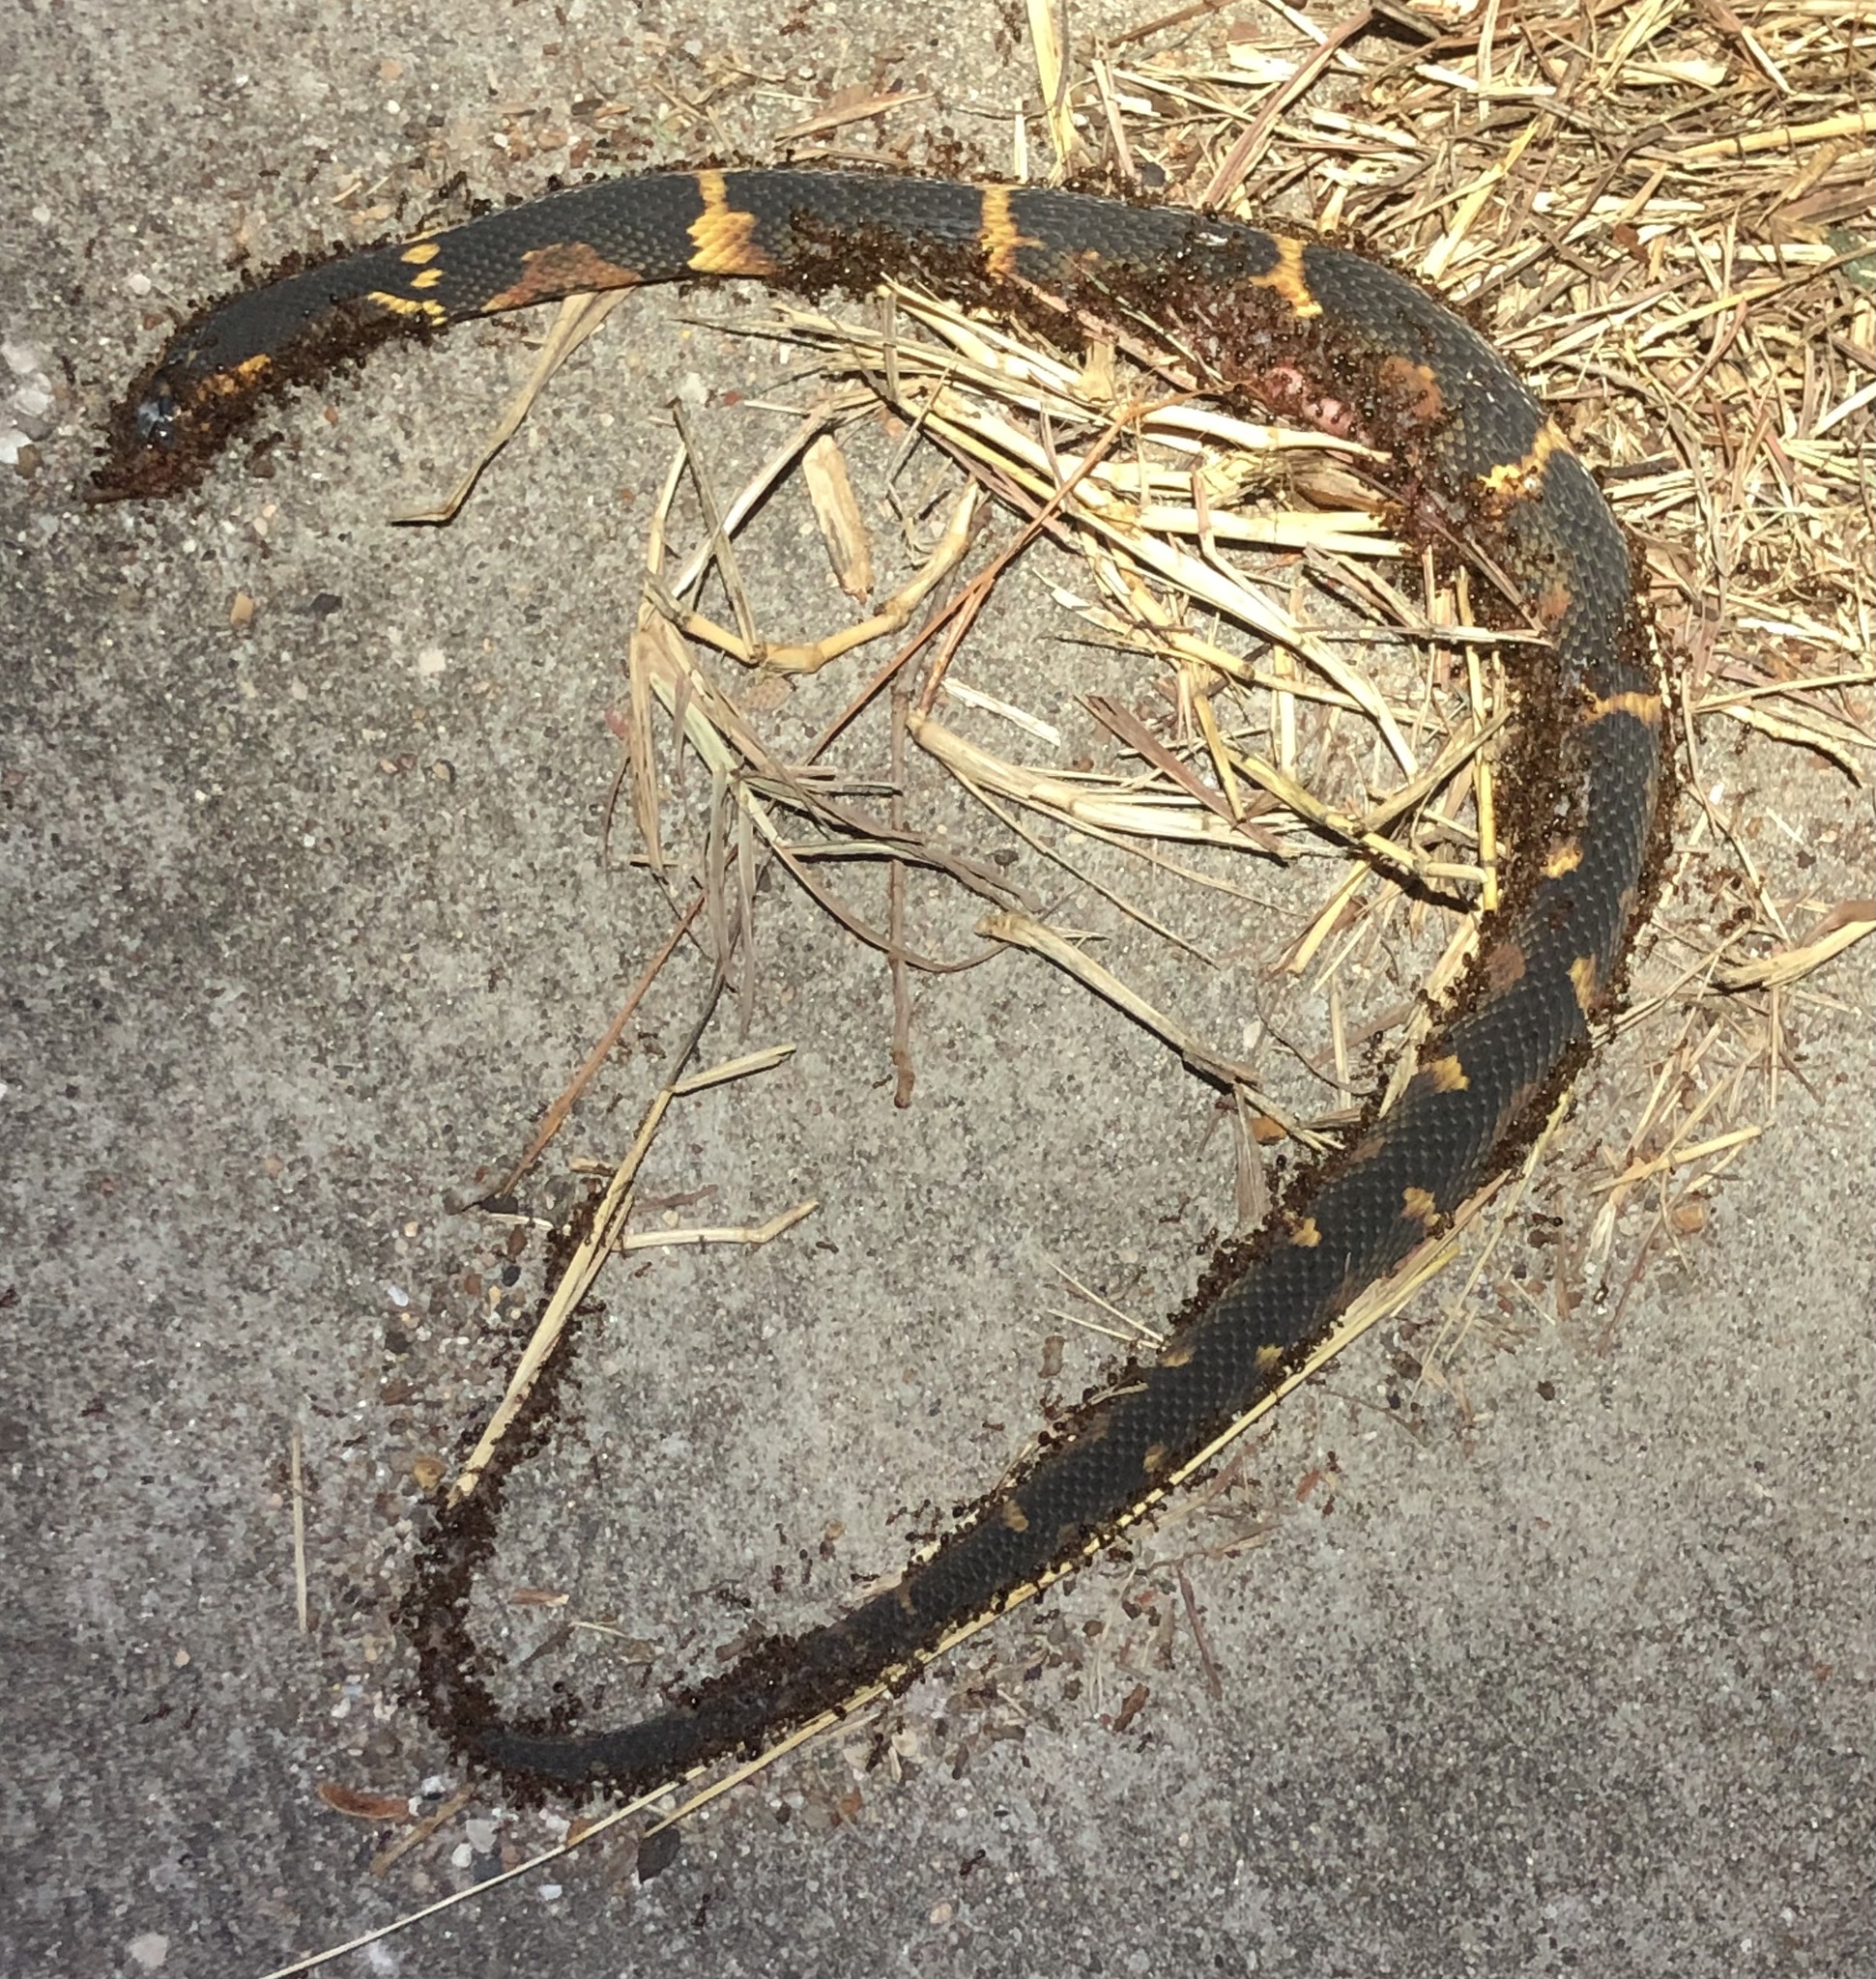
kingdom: Animalia
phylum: Chordata
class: Squamata
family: Colubridae
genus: Nerodia
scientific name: Nerodia fasciata
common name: Southern water snake
